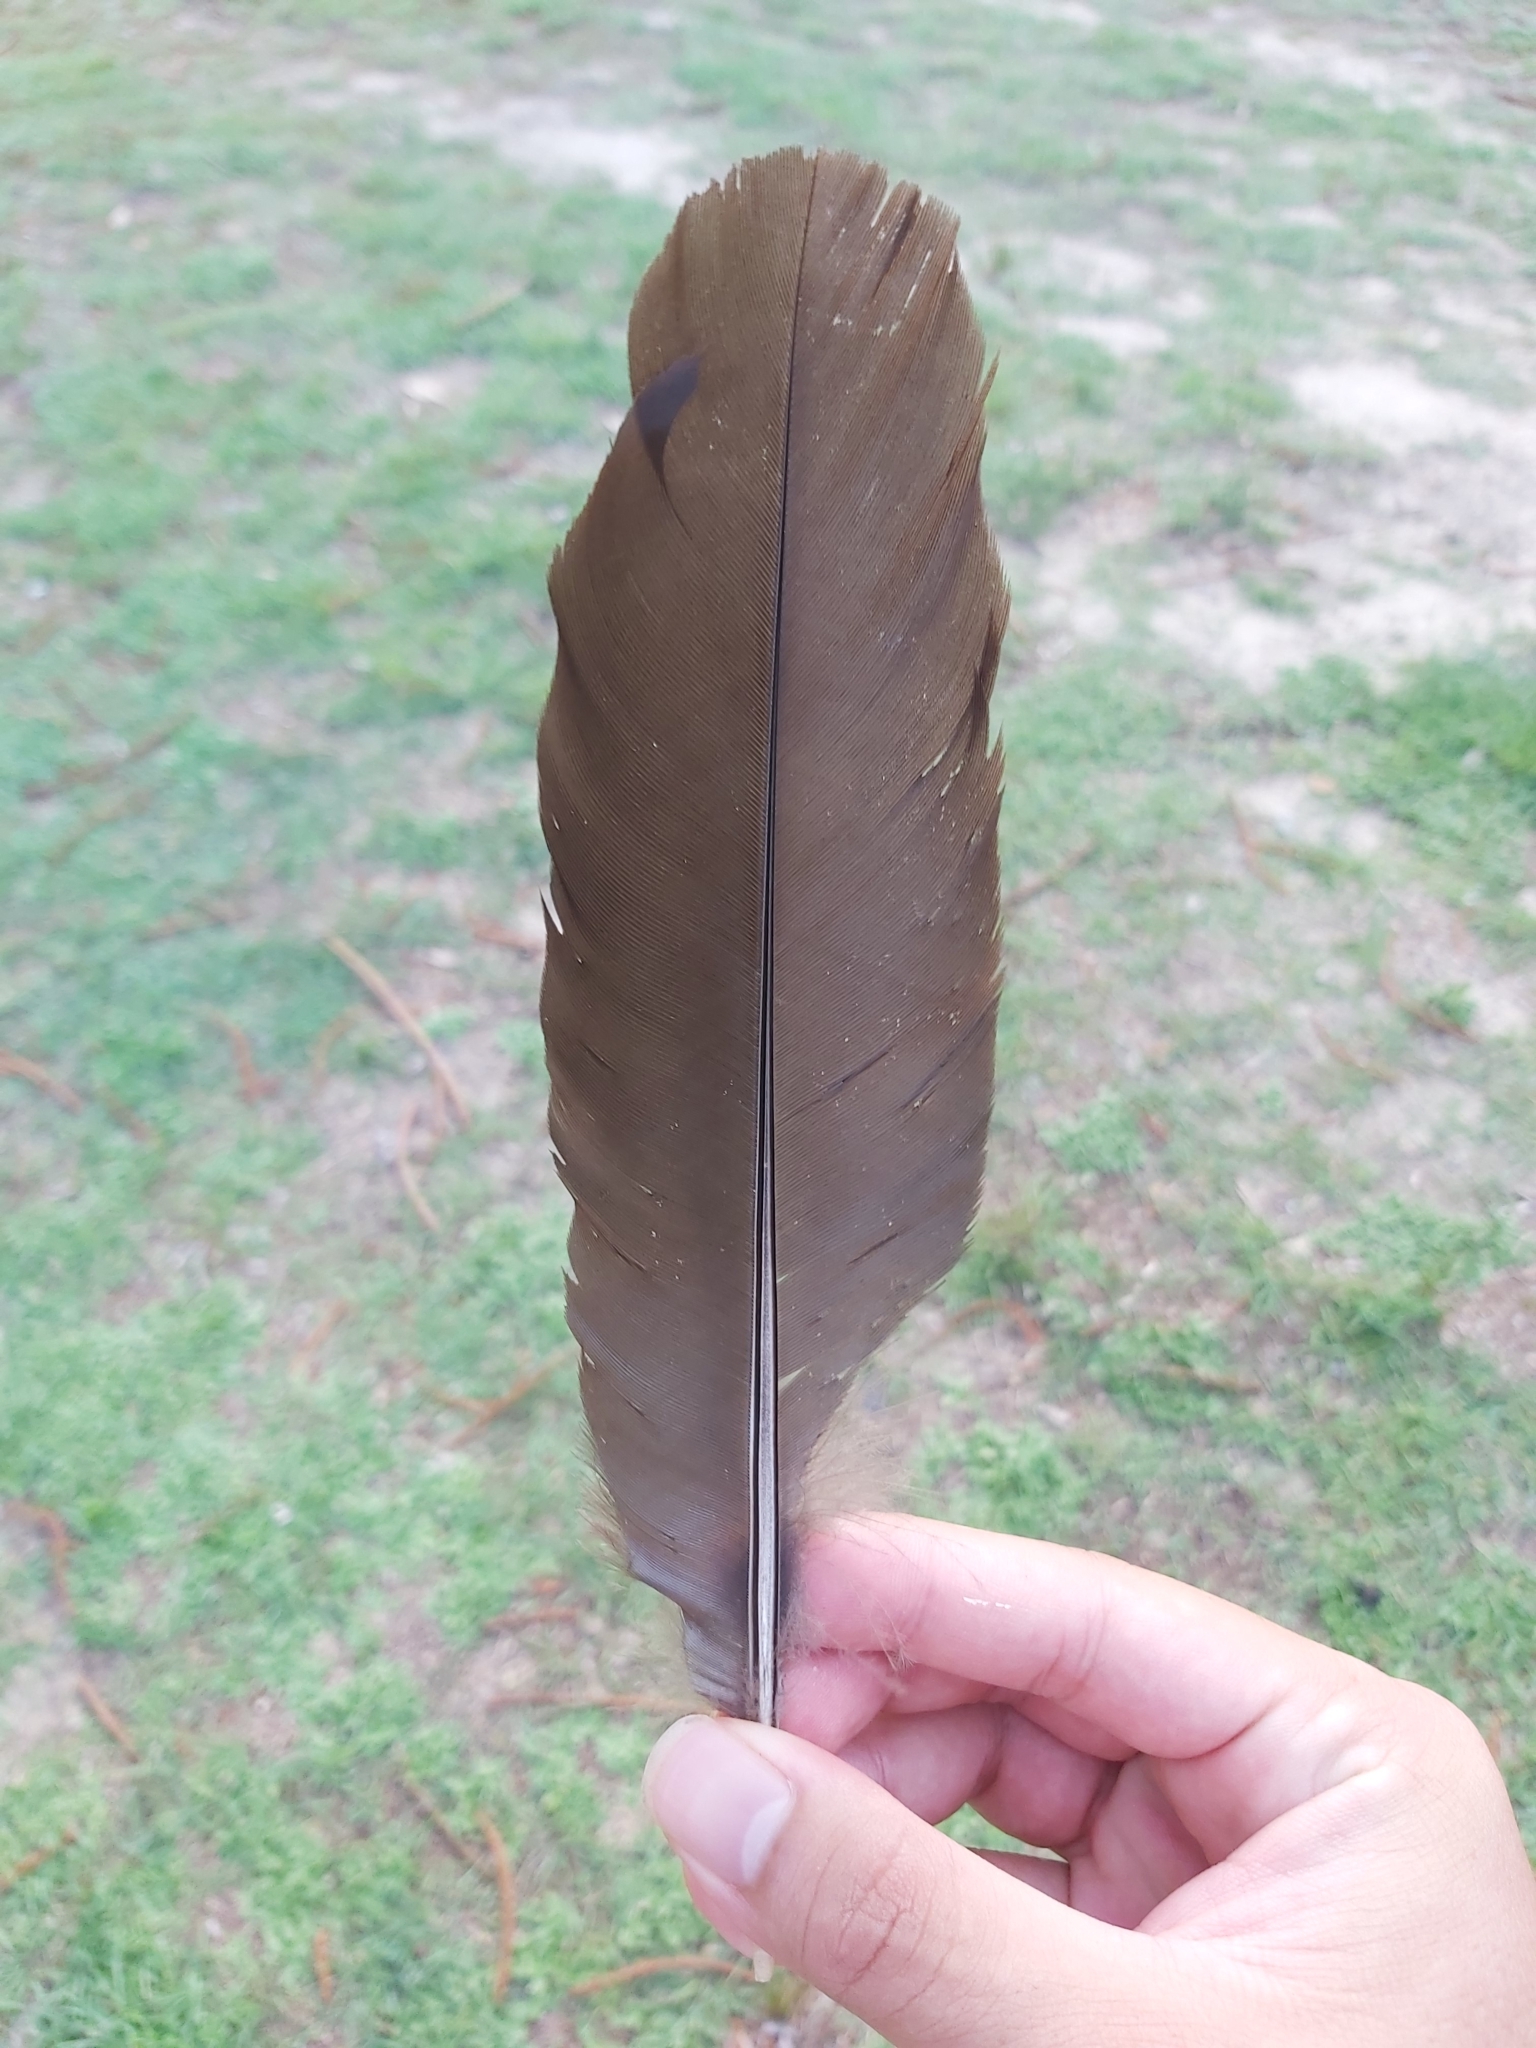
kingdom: Animalia
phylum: Chordata
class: Aves
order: Galliformes
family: Megapodiidae
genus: Alectura
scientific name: Alectura lathami
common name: Australian brushturkey
